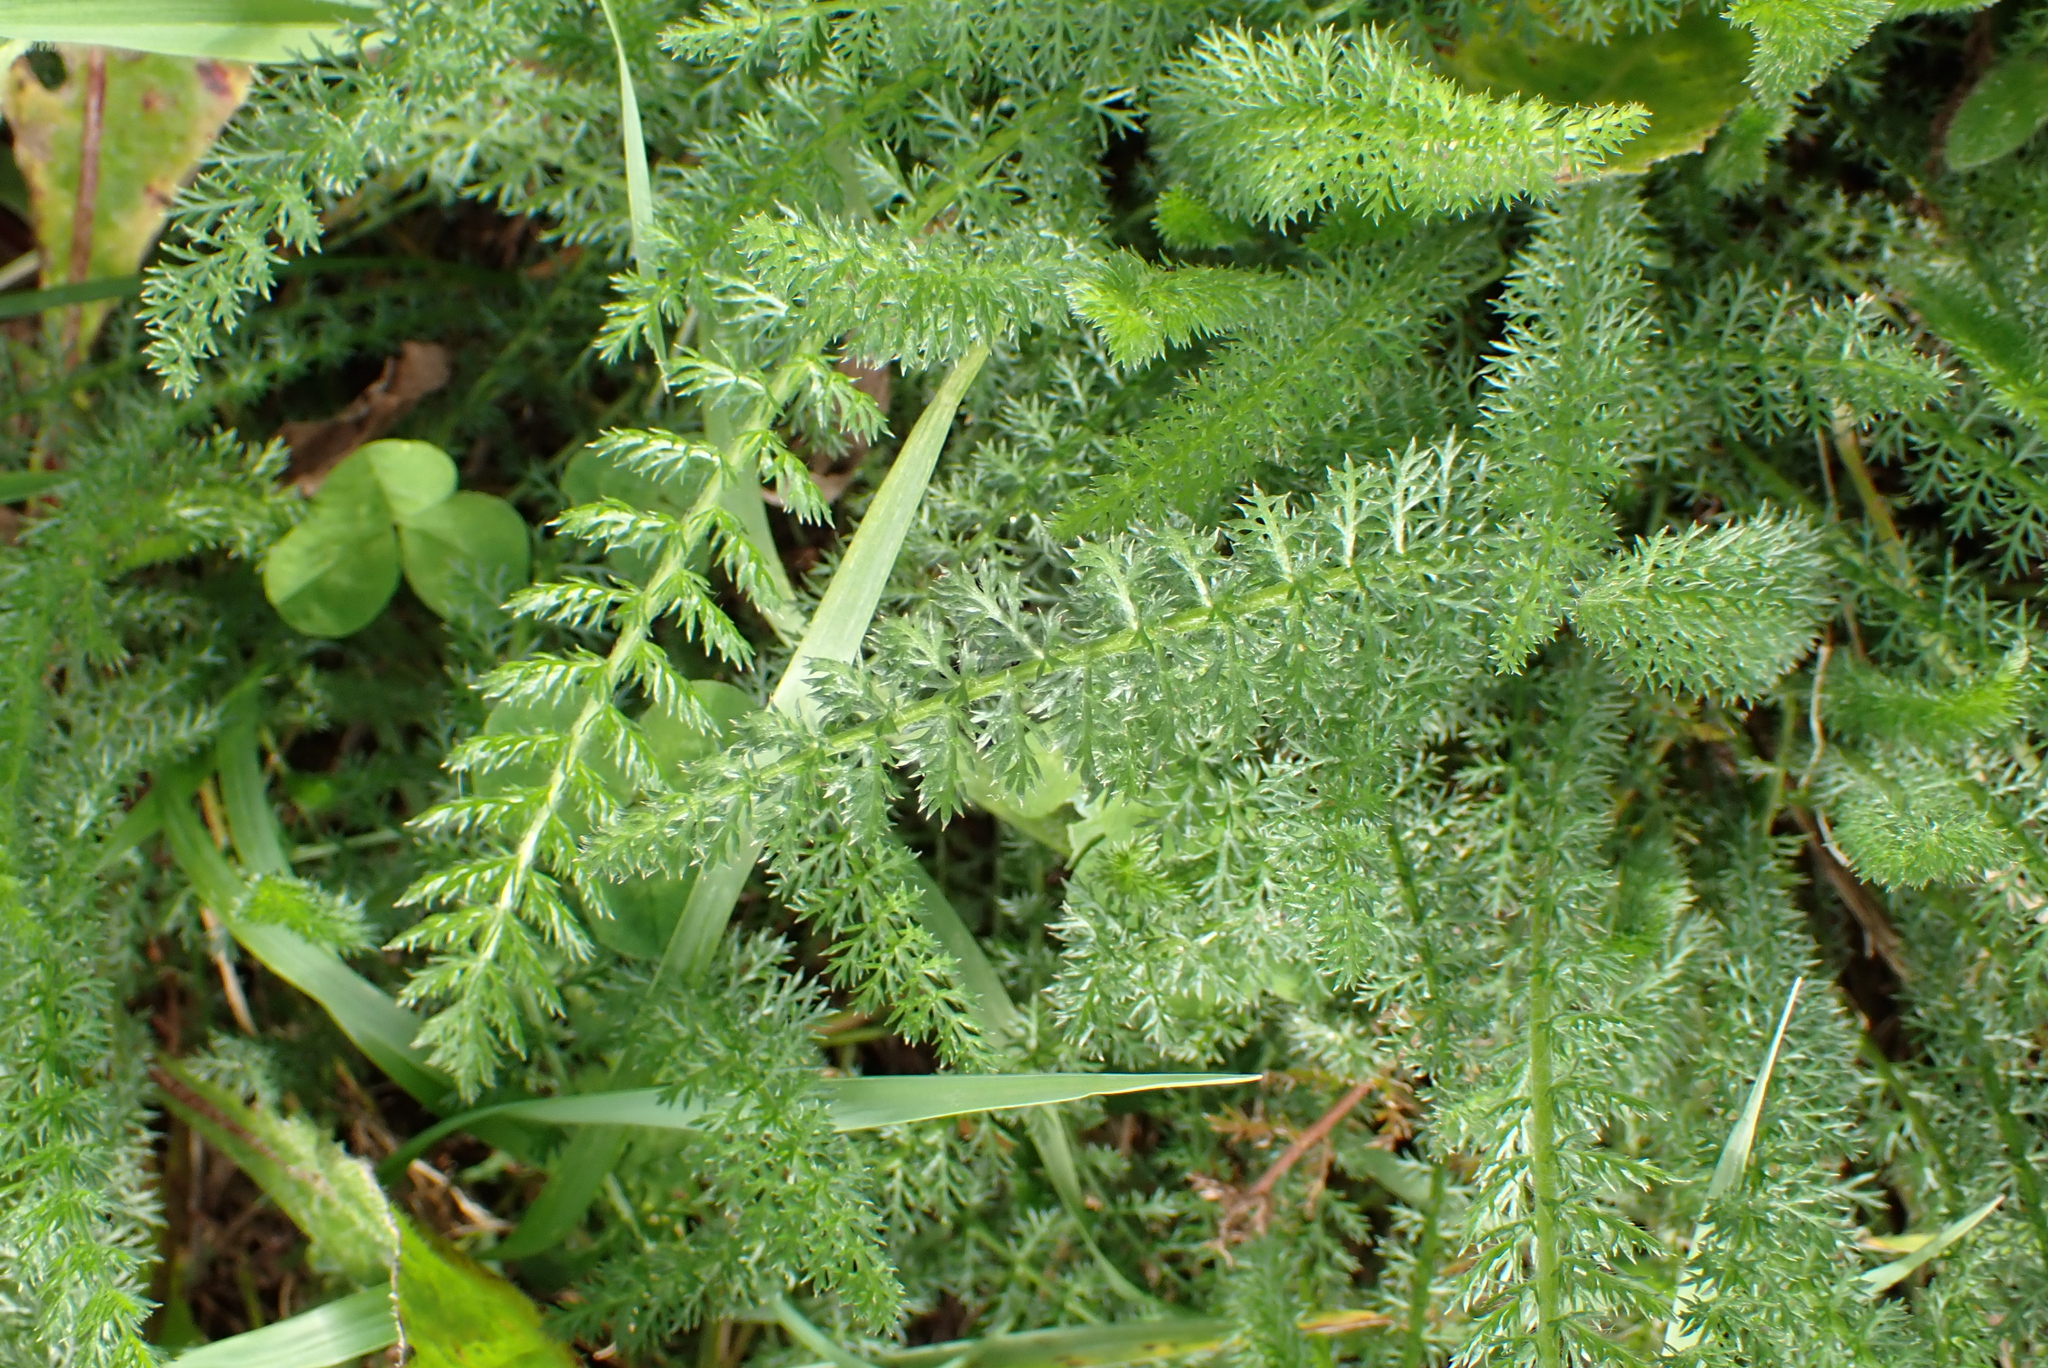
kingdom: Plantae
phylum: Tracheophyta
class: Magnoliopsida
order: Asterales
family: Asteraceae
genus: Achillea
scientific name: Achillea millefolium
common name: Yarrow
